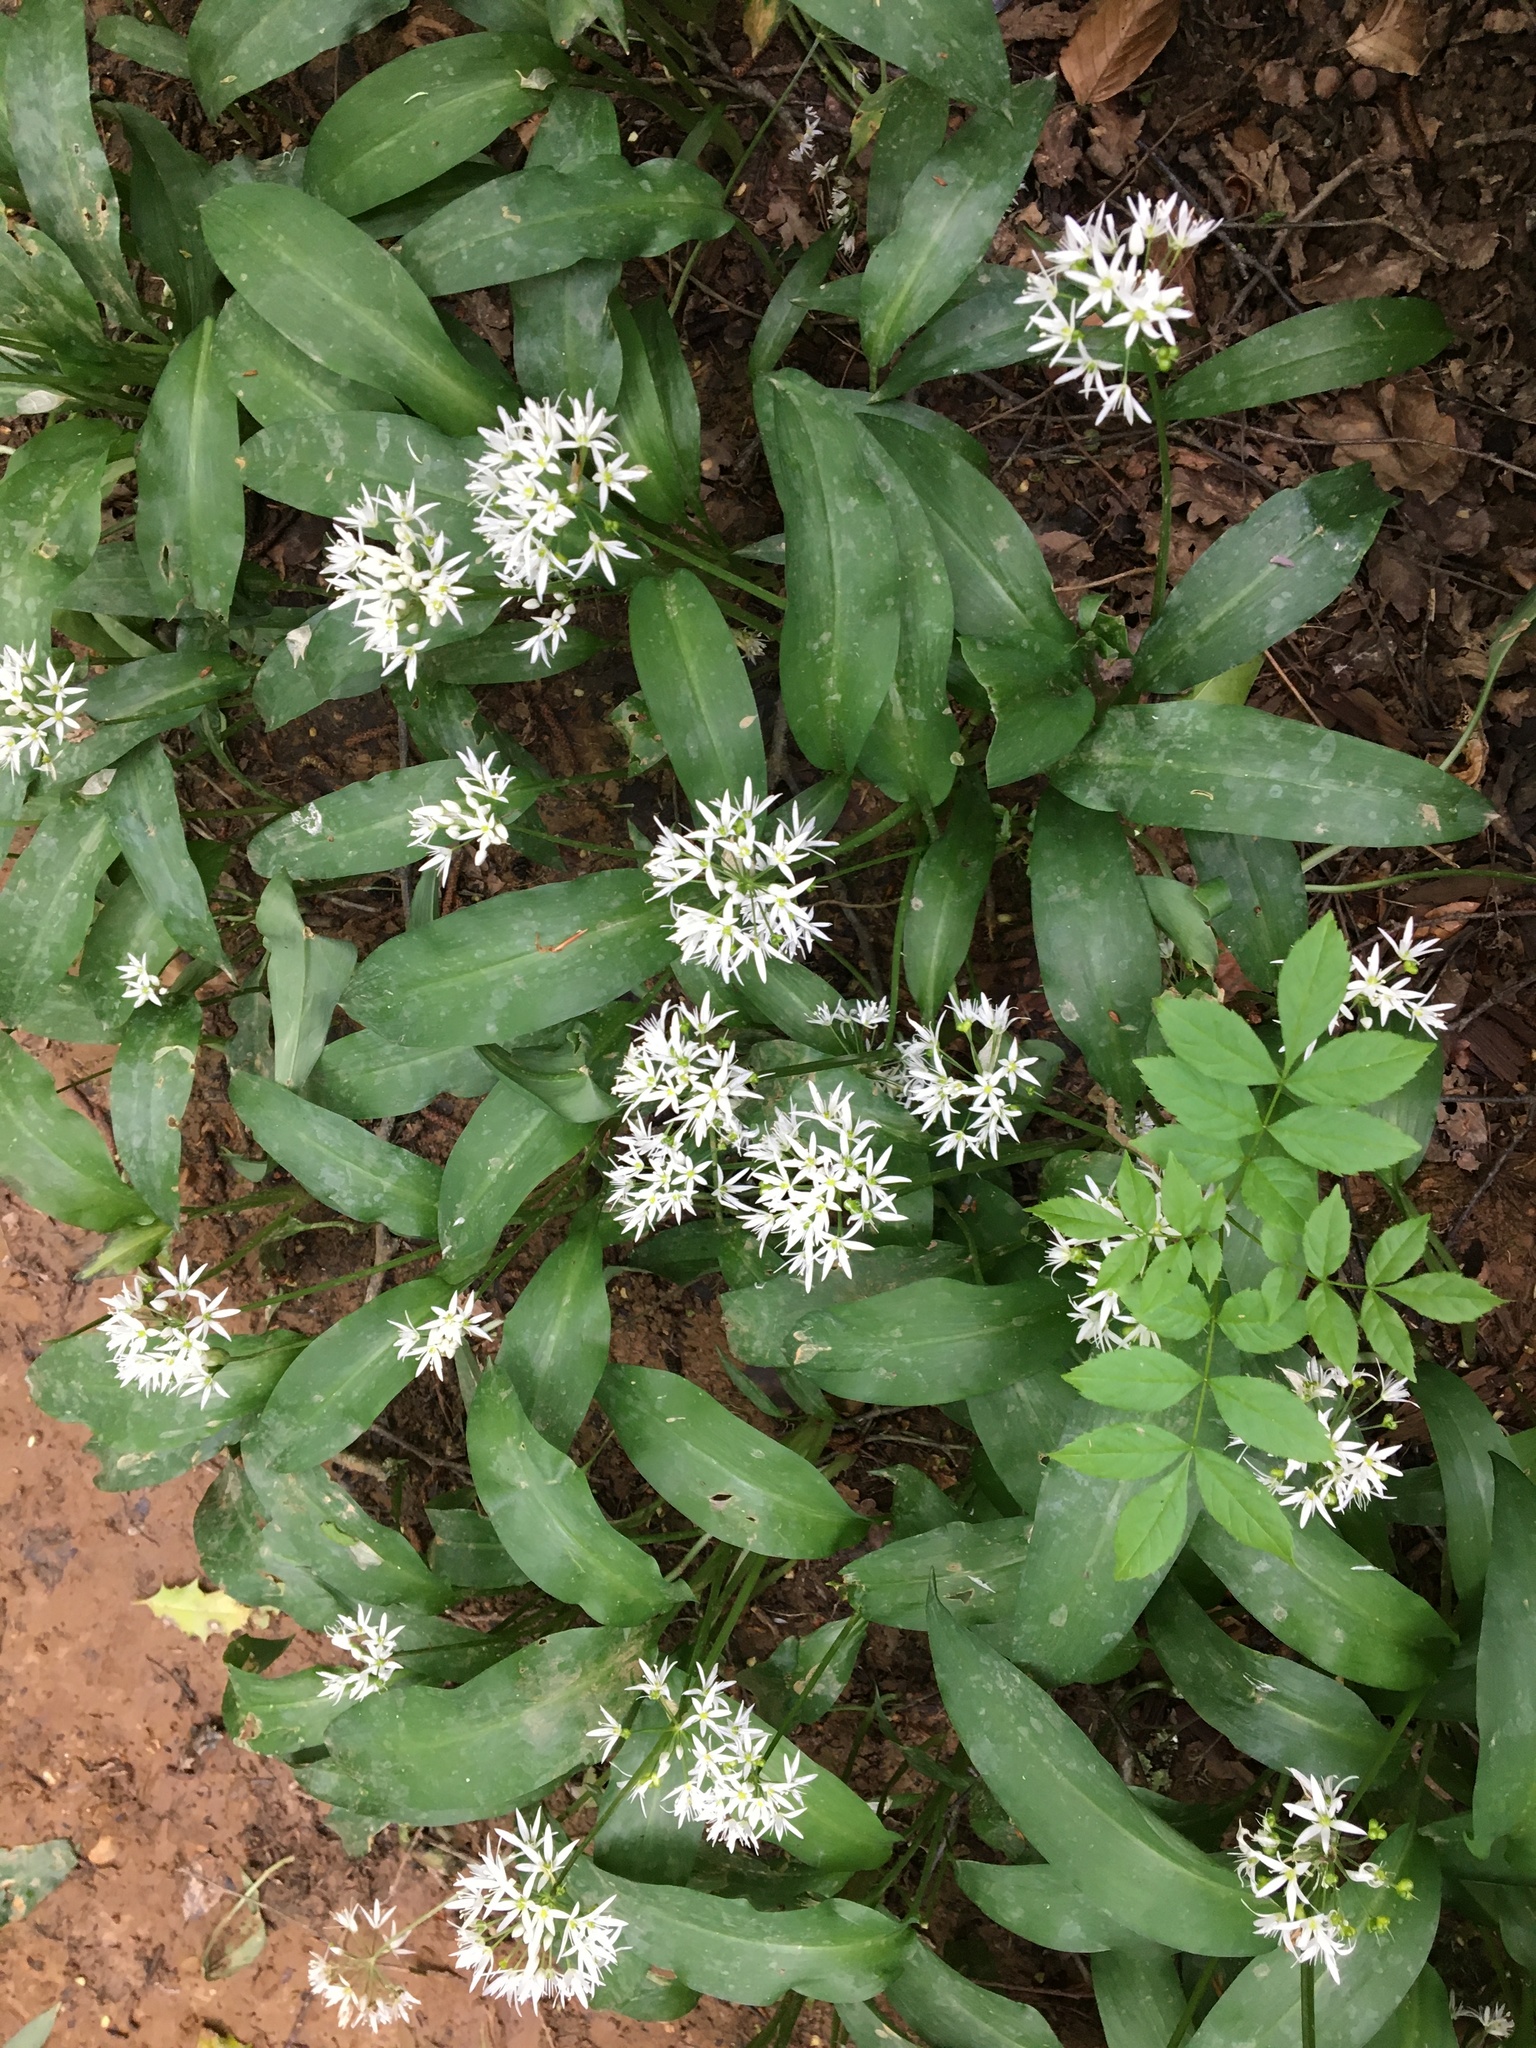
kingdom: Plantae
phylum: Tracheophyta
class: Liliopsida
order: Asparagales
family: Amaryllidaceae
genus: Allium
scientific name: Allium ursinum
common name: Ramsons
